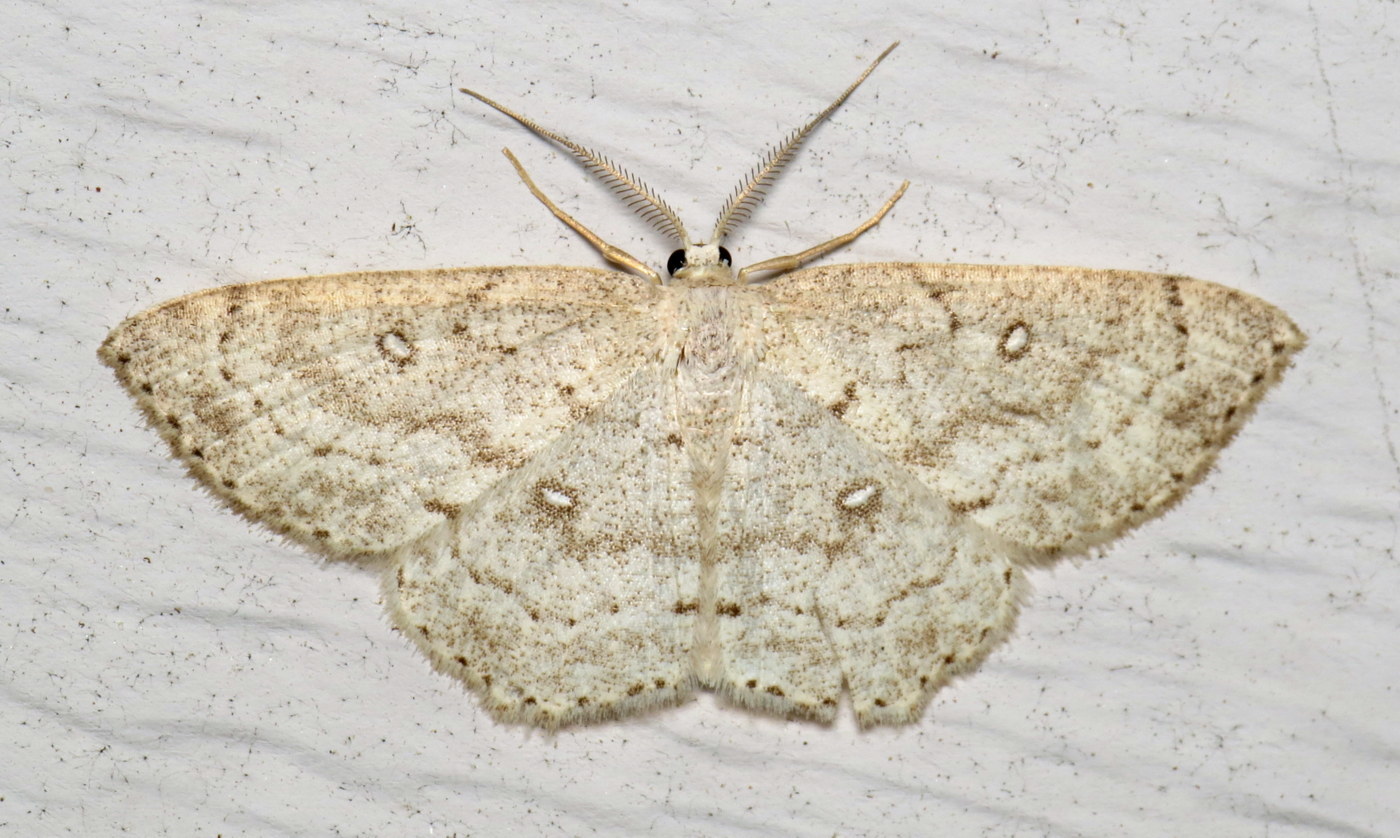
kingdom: Animalia
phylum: Arthropoda
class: Insecta
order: Lepidoptera
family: Geometridae
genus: Cyclophora
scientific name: Cyclophora pendulinaria
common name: Sweet fern geometer
